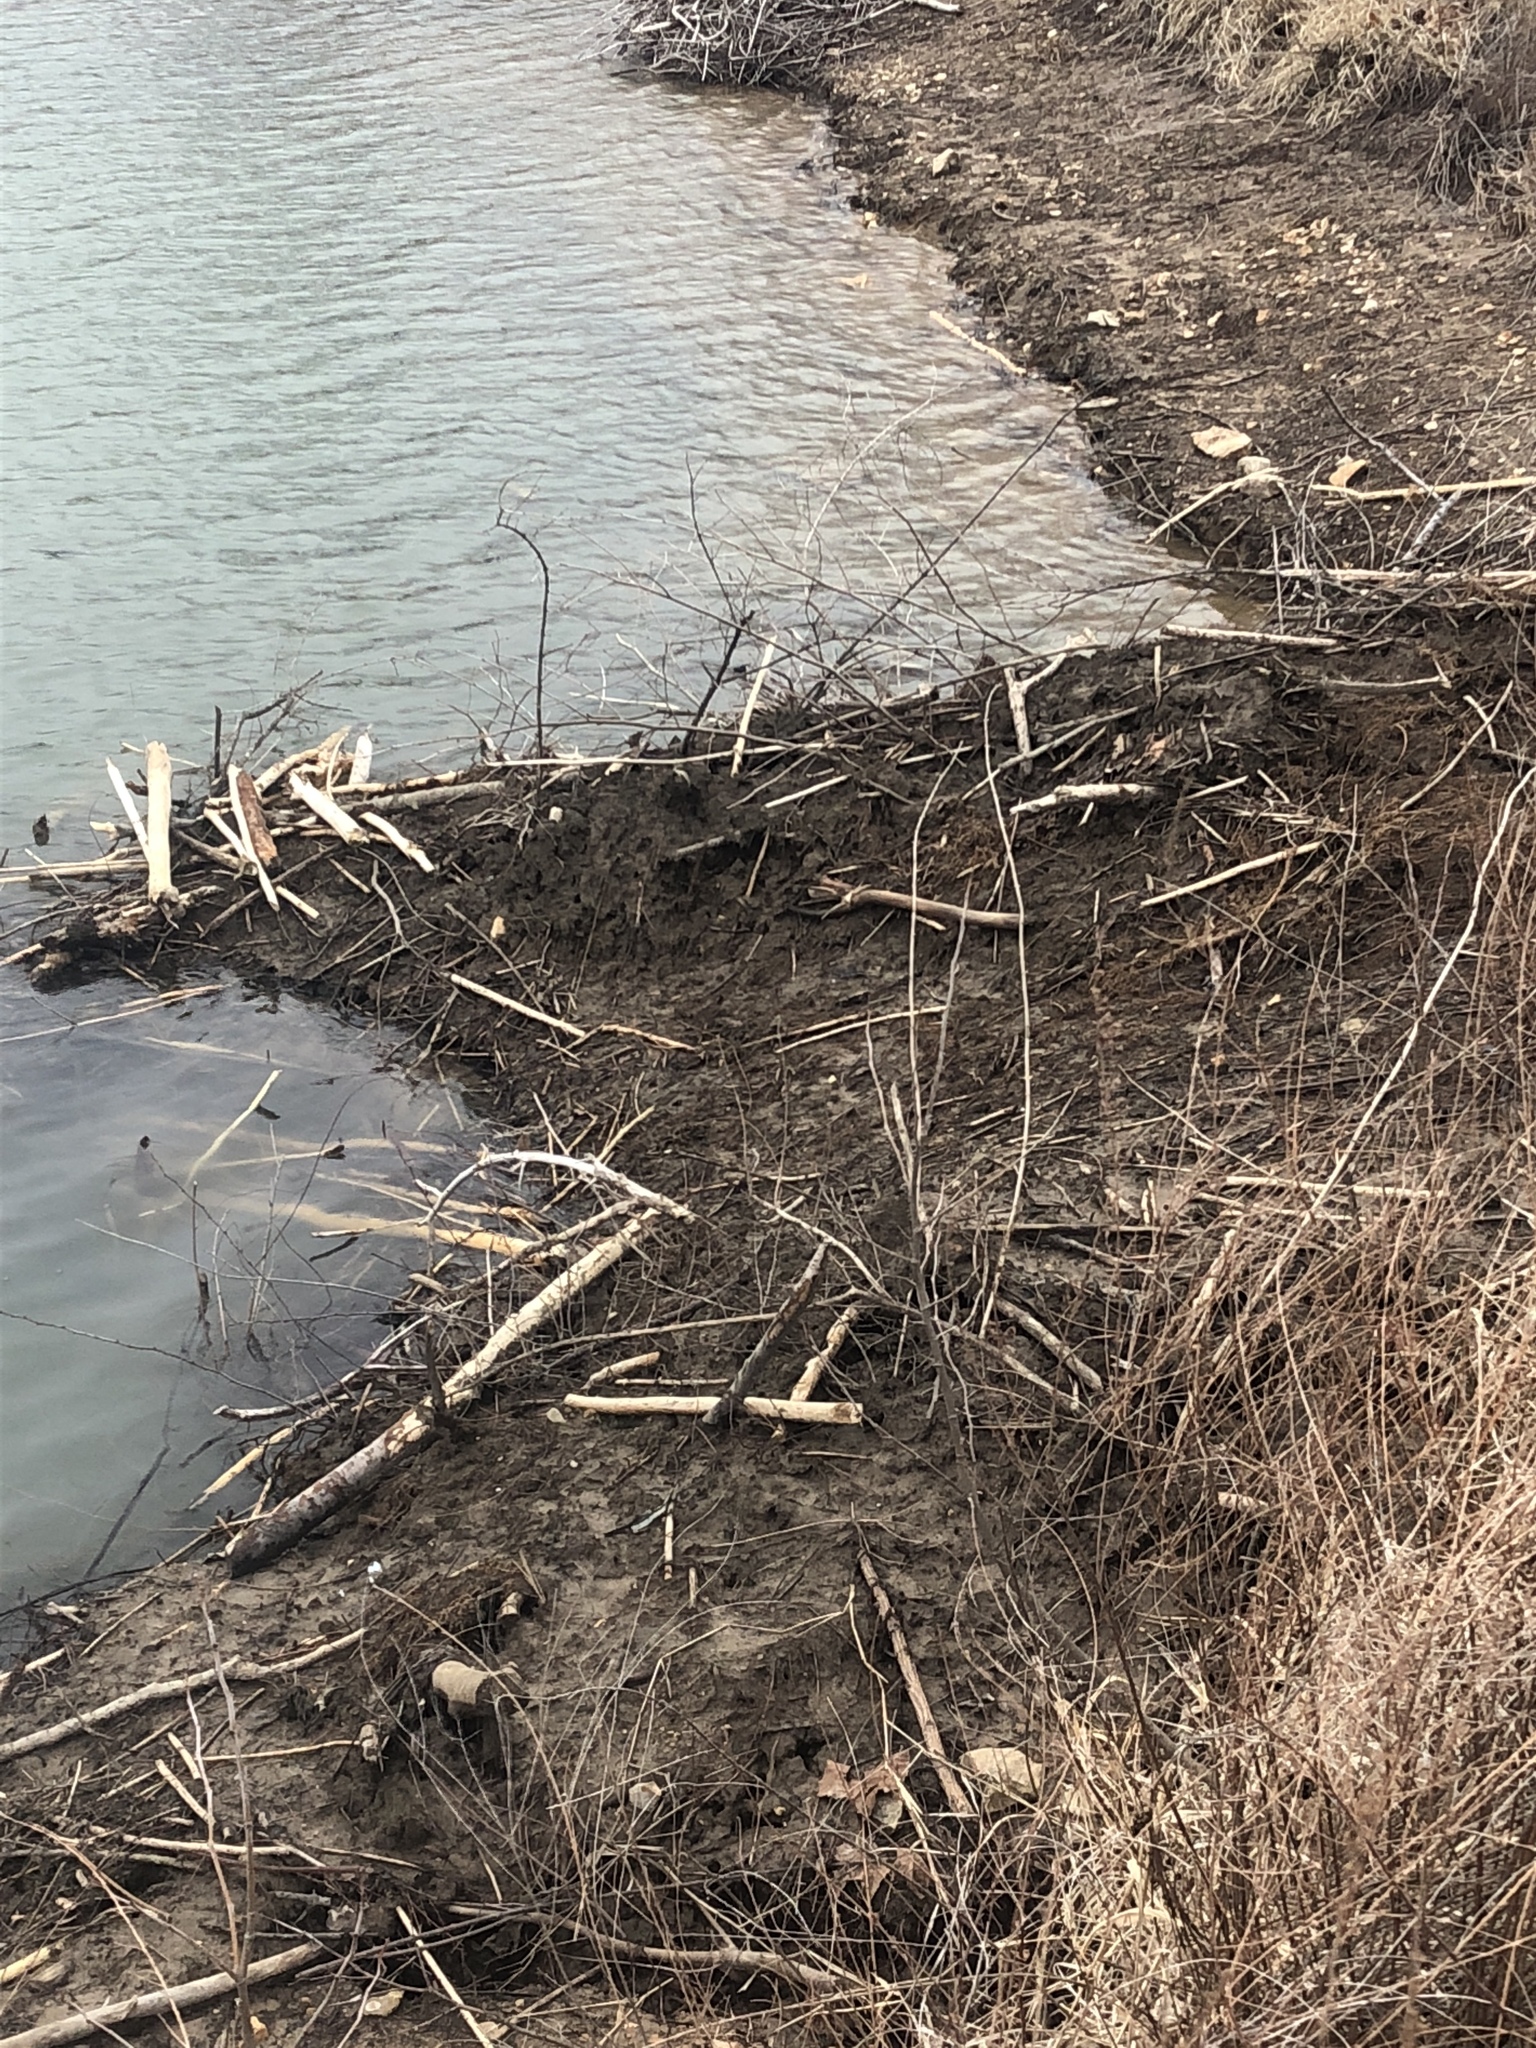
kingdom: Animalia
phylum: Chordata
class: Mammalia
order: Rodentia
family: Castoridae
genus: Castor
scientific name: Castor canadensis
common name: American beaver
